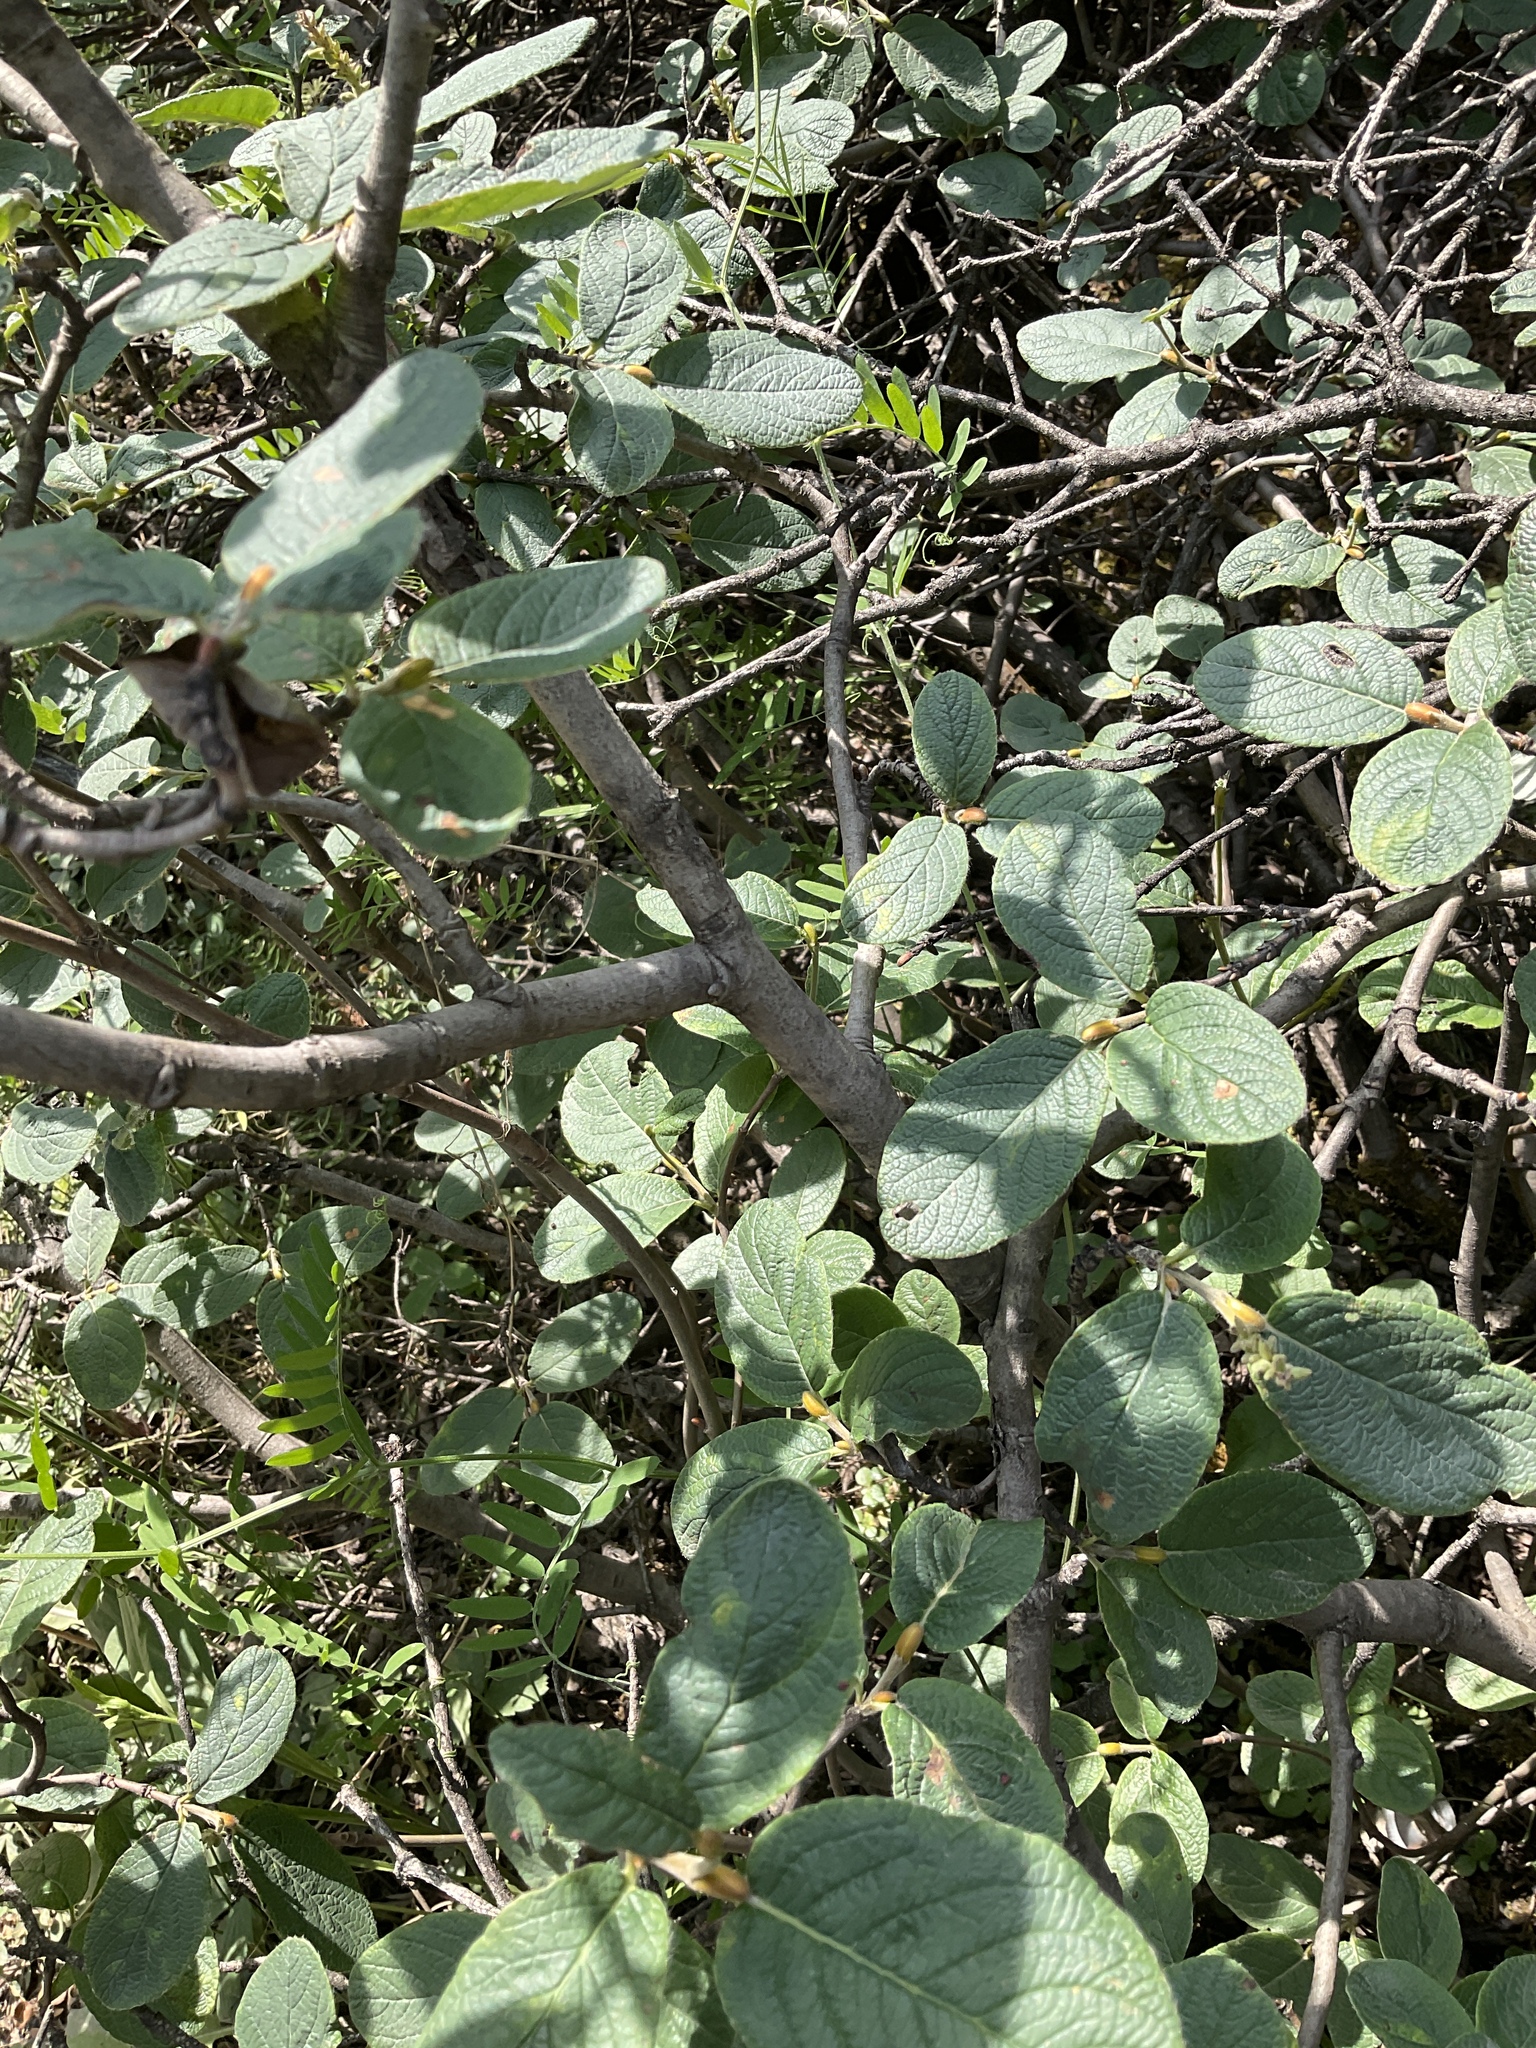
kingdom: Plantae
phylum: Tracheophyta
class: Magnoliopsida
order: Malpighiales
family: Salicaceae
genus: Salix
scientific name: Salix vestita
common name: Hairy willow
